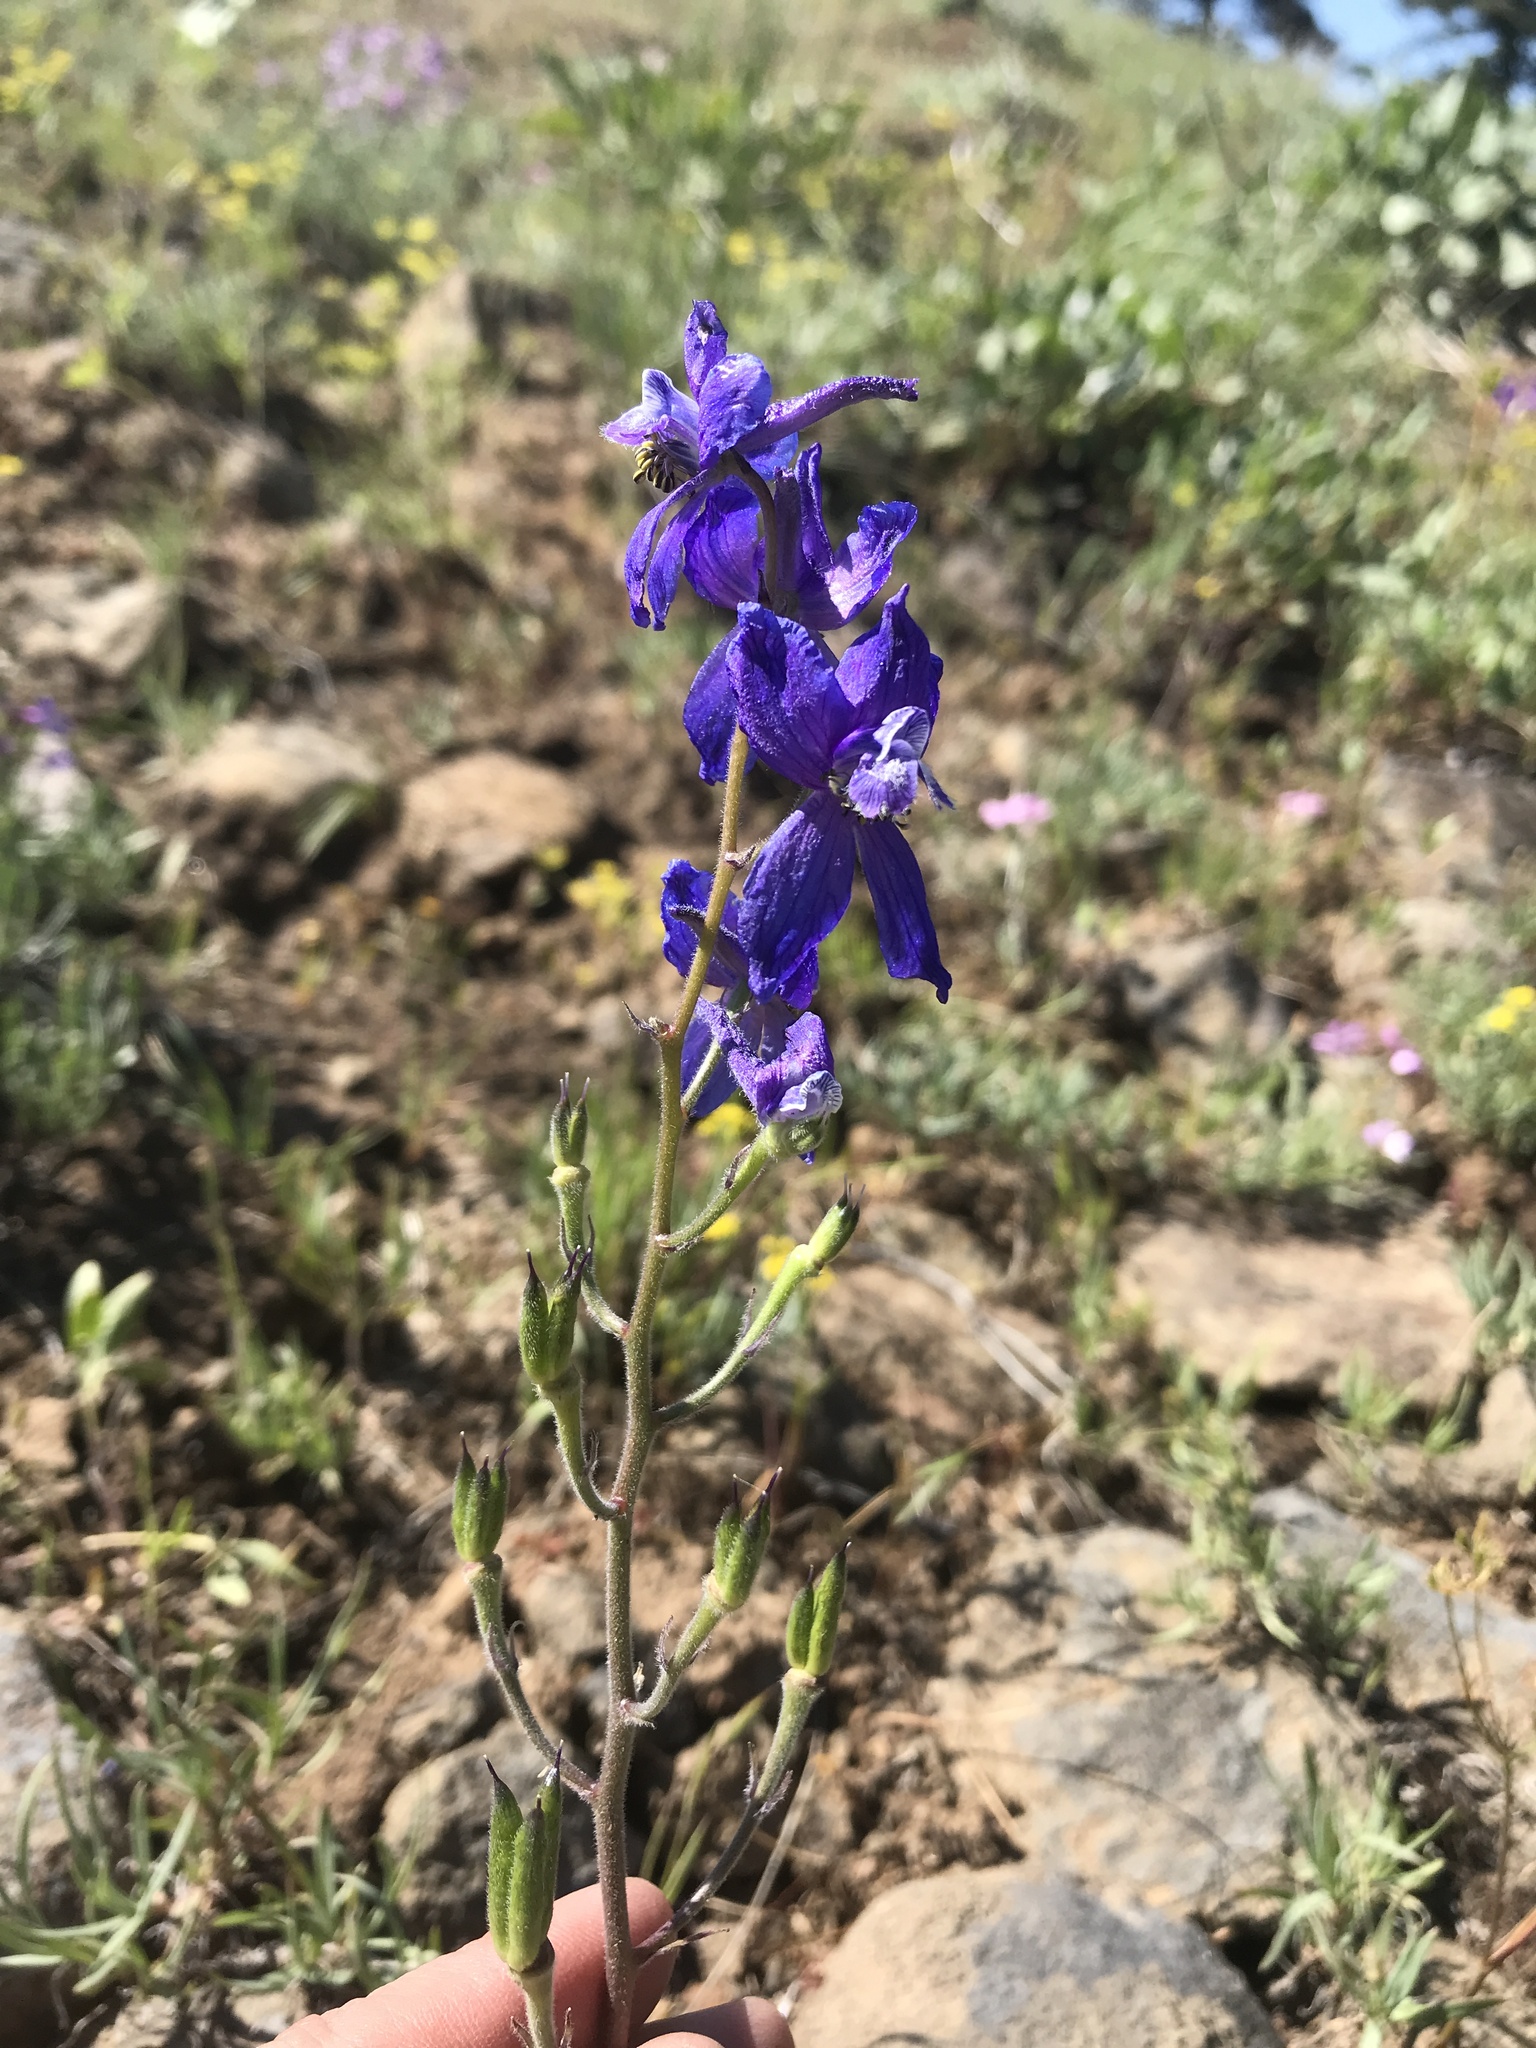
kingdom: Plantae
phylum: Tracheophyta
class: Magnoliopsida
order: Ranunculales
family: Ranunculaceae
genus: Delphinium
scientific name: Delphinium nuttallianum
